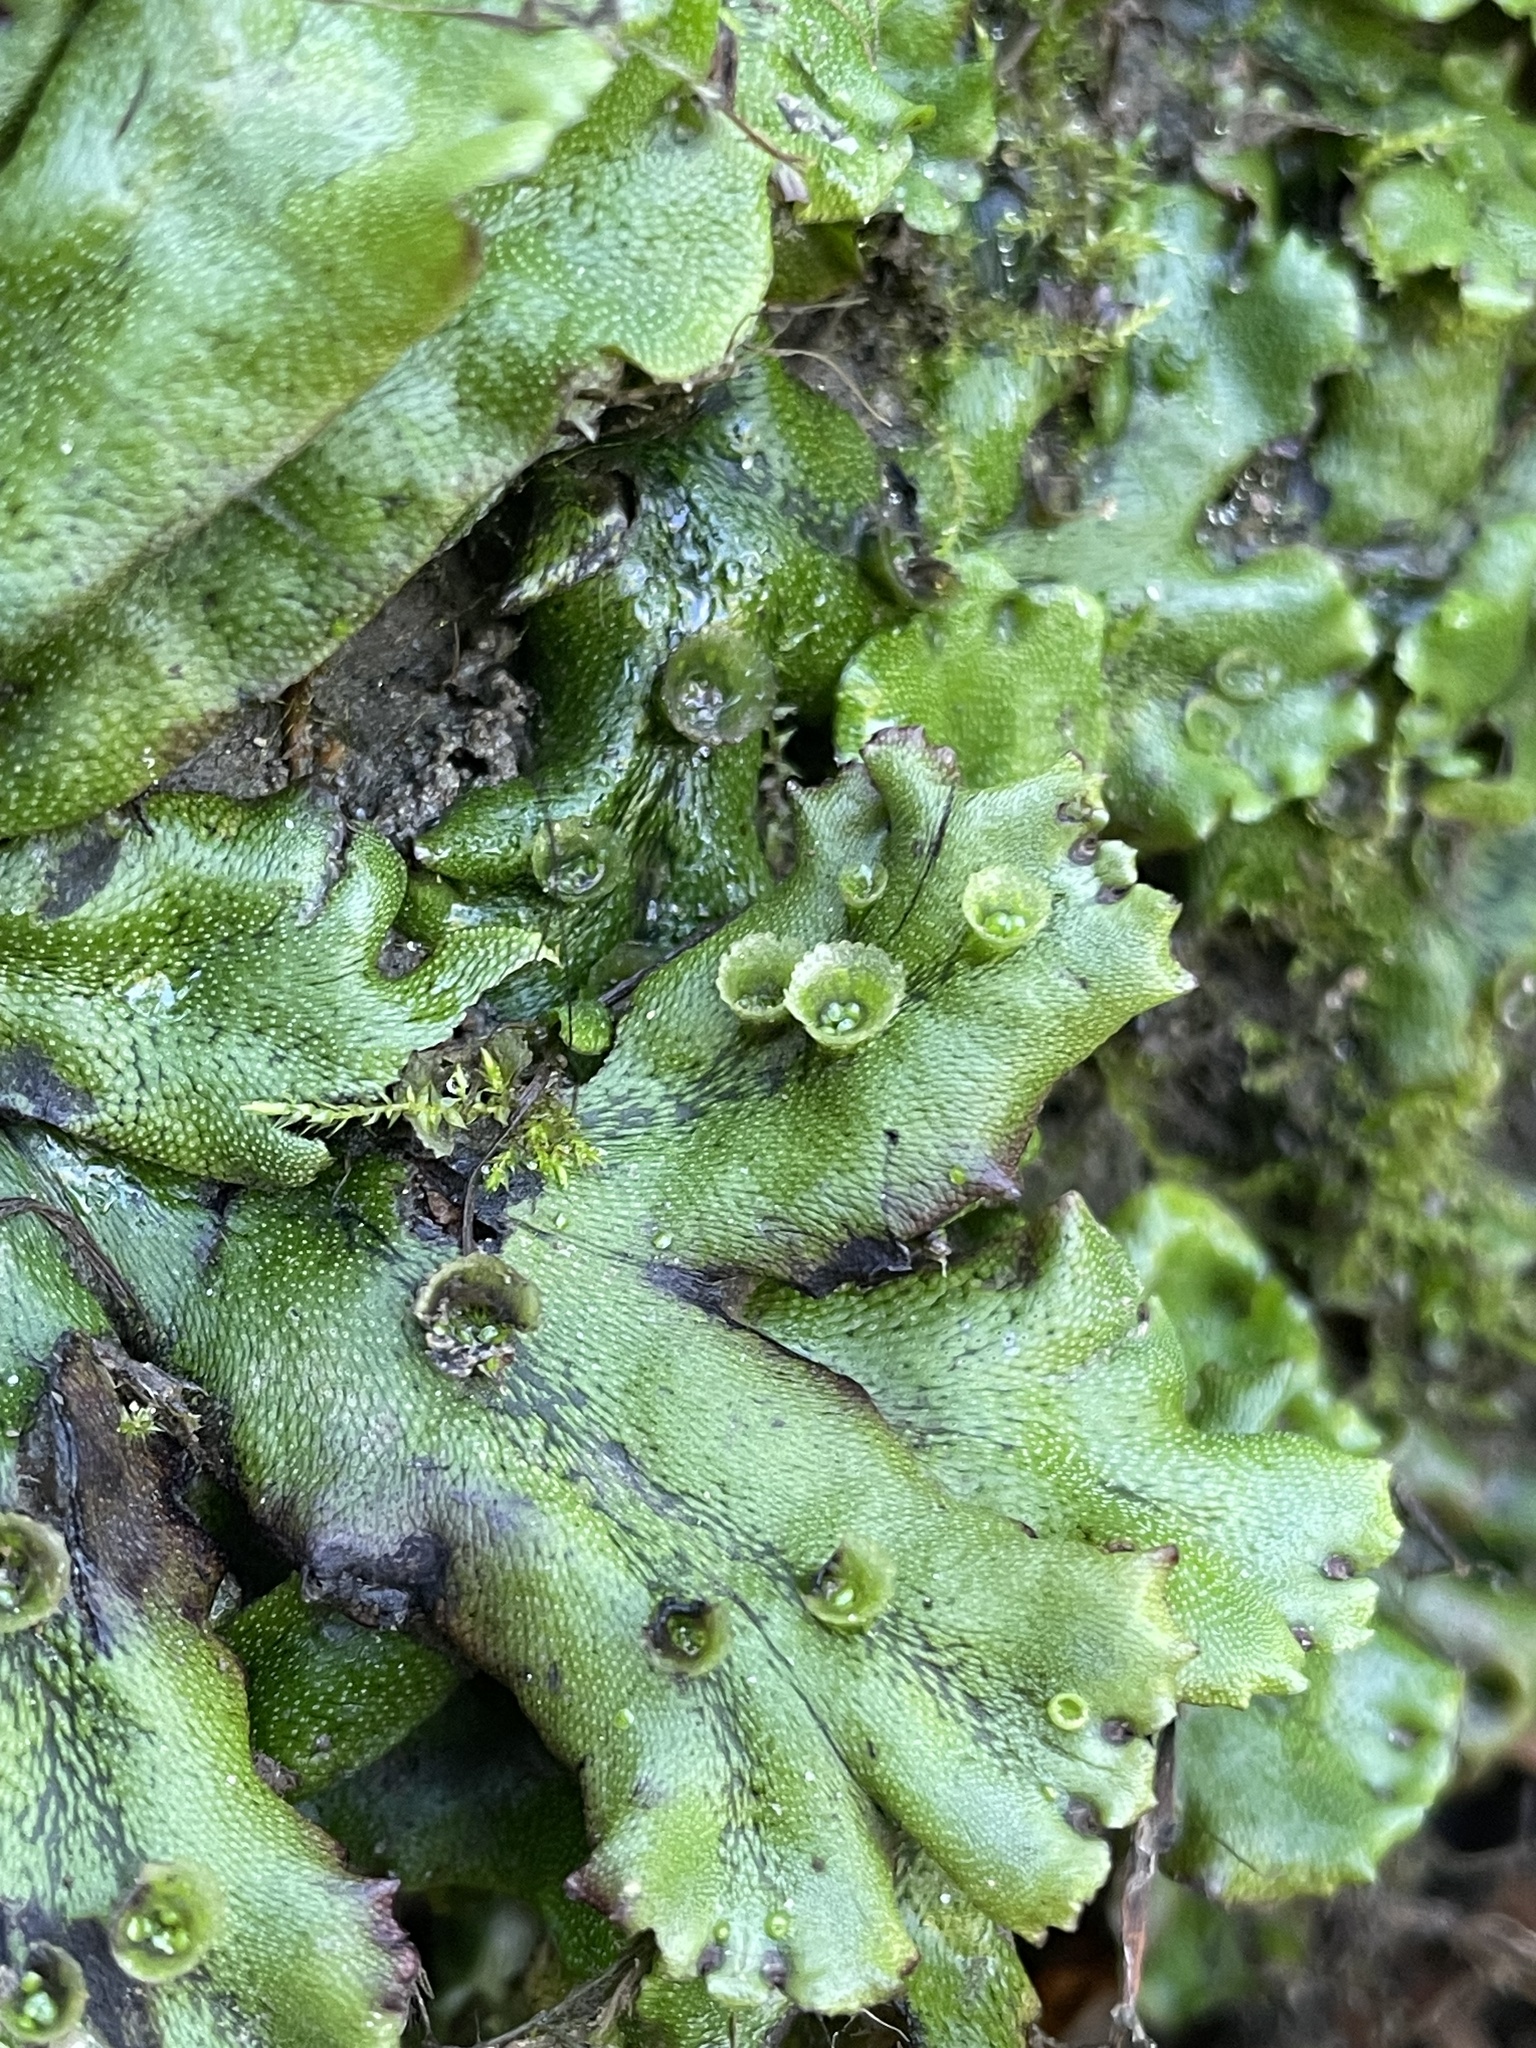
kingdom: Plantae
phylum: Marchantiophyta
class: Marchantiopsida
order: Marchantiales
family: Marchantiaceae
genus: Marchantia
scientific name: Marchantia polymorpha
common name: Common liverwort
